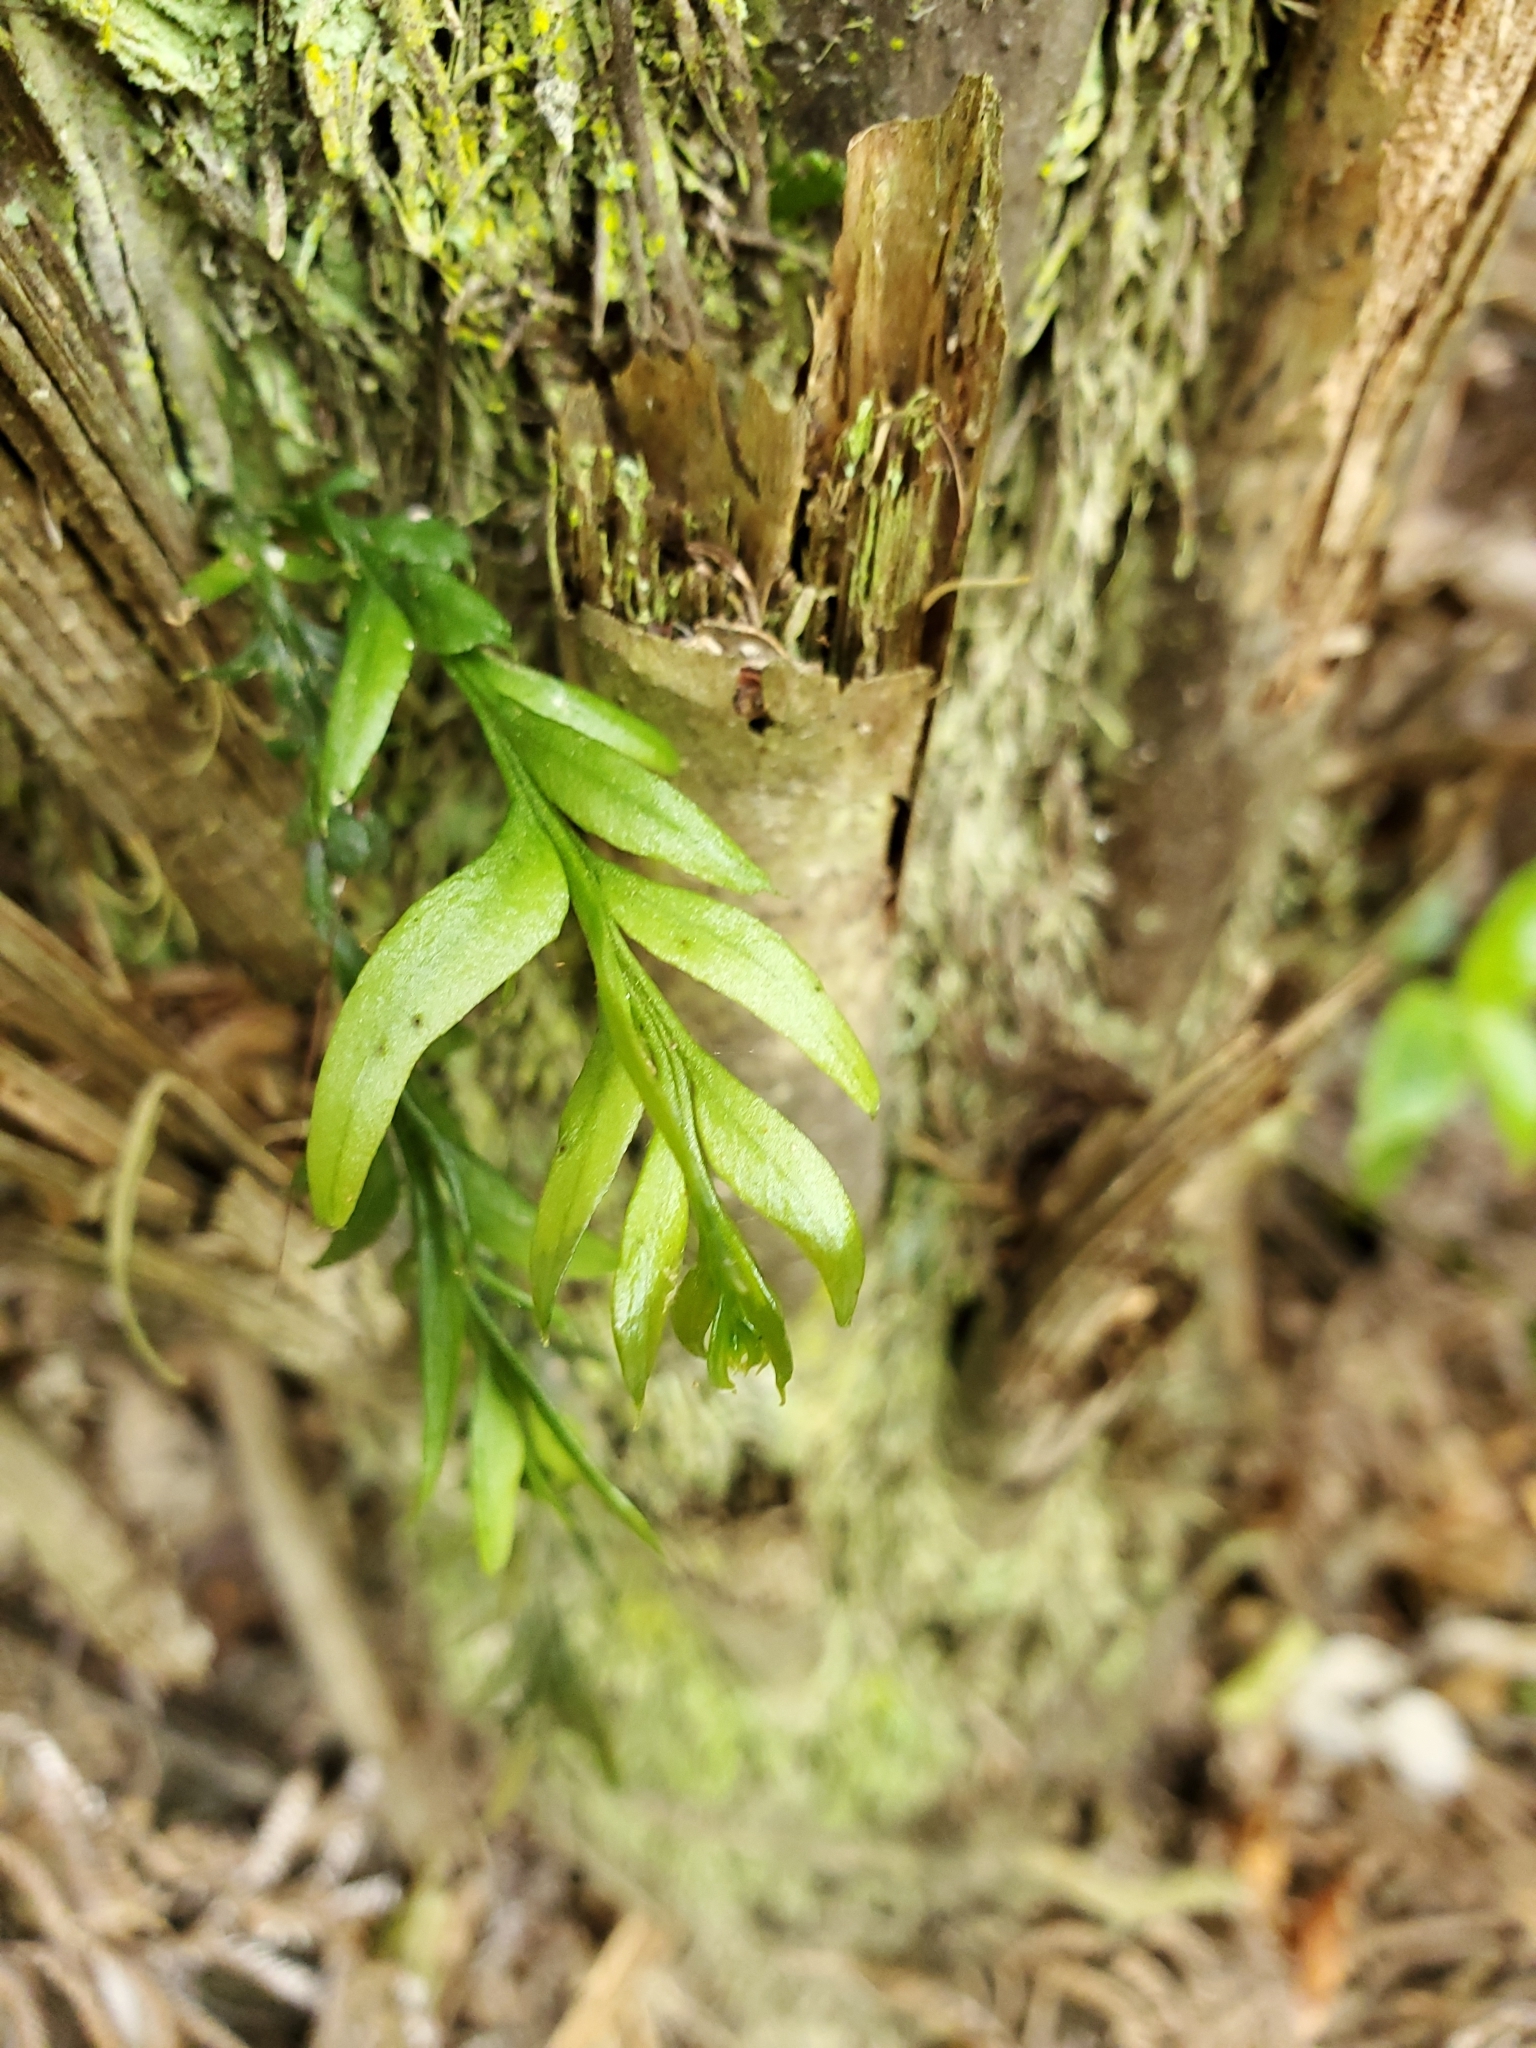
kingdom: Plantae
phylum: Tracheophyta
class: Polypodiopsida
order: Psilotales
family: Psilotaceae
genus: Tmesipteris
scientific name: Tmesipteris elongata
